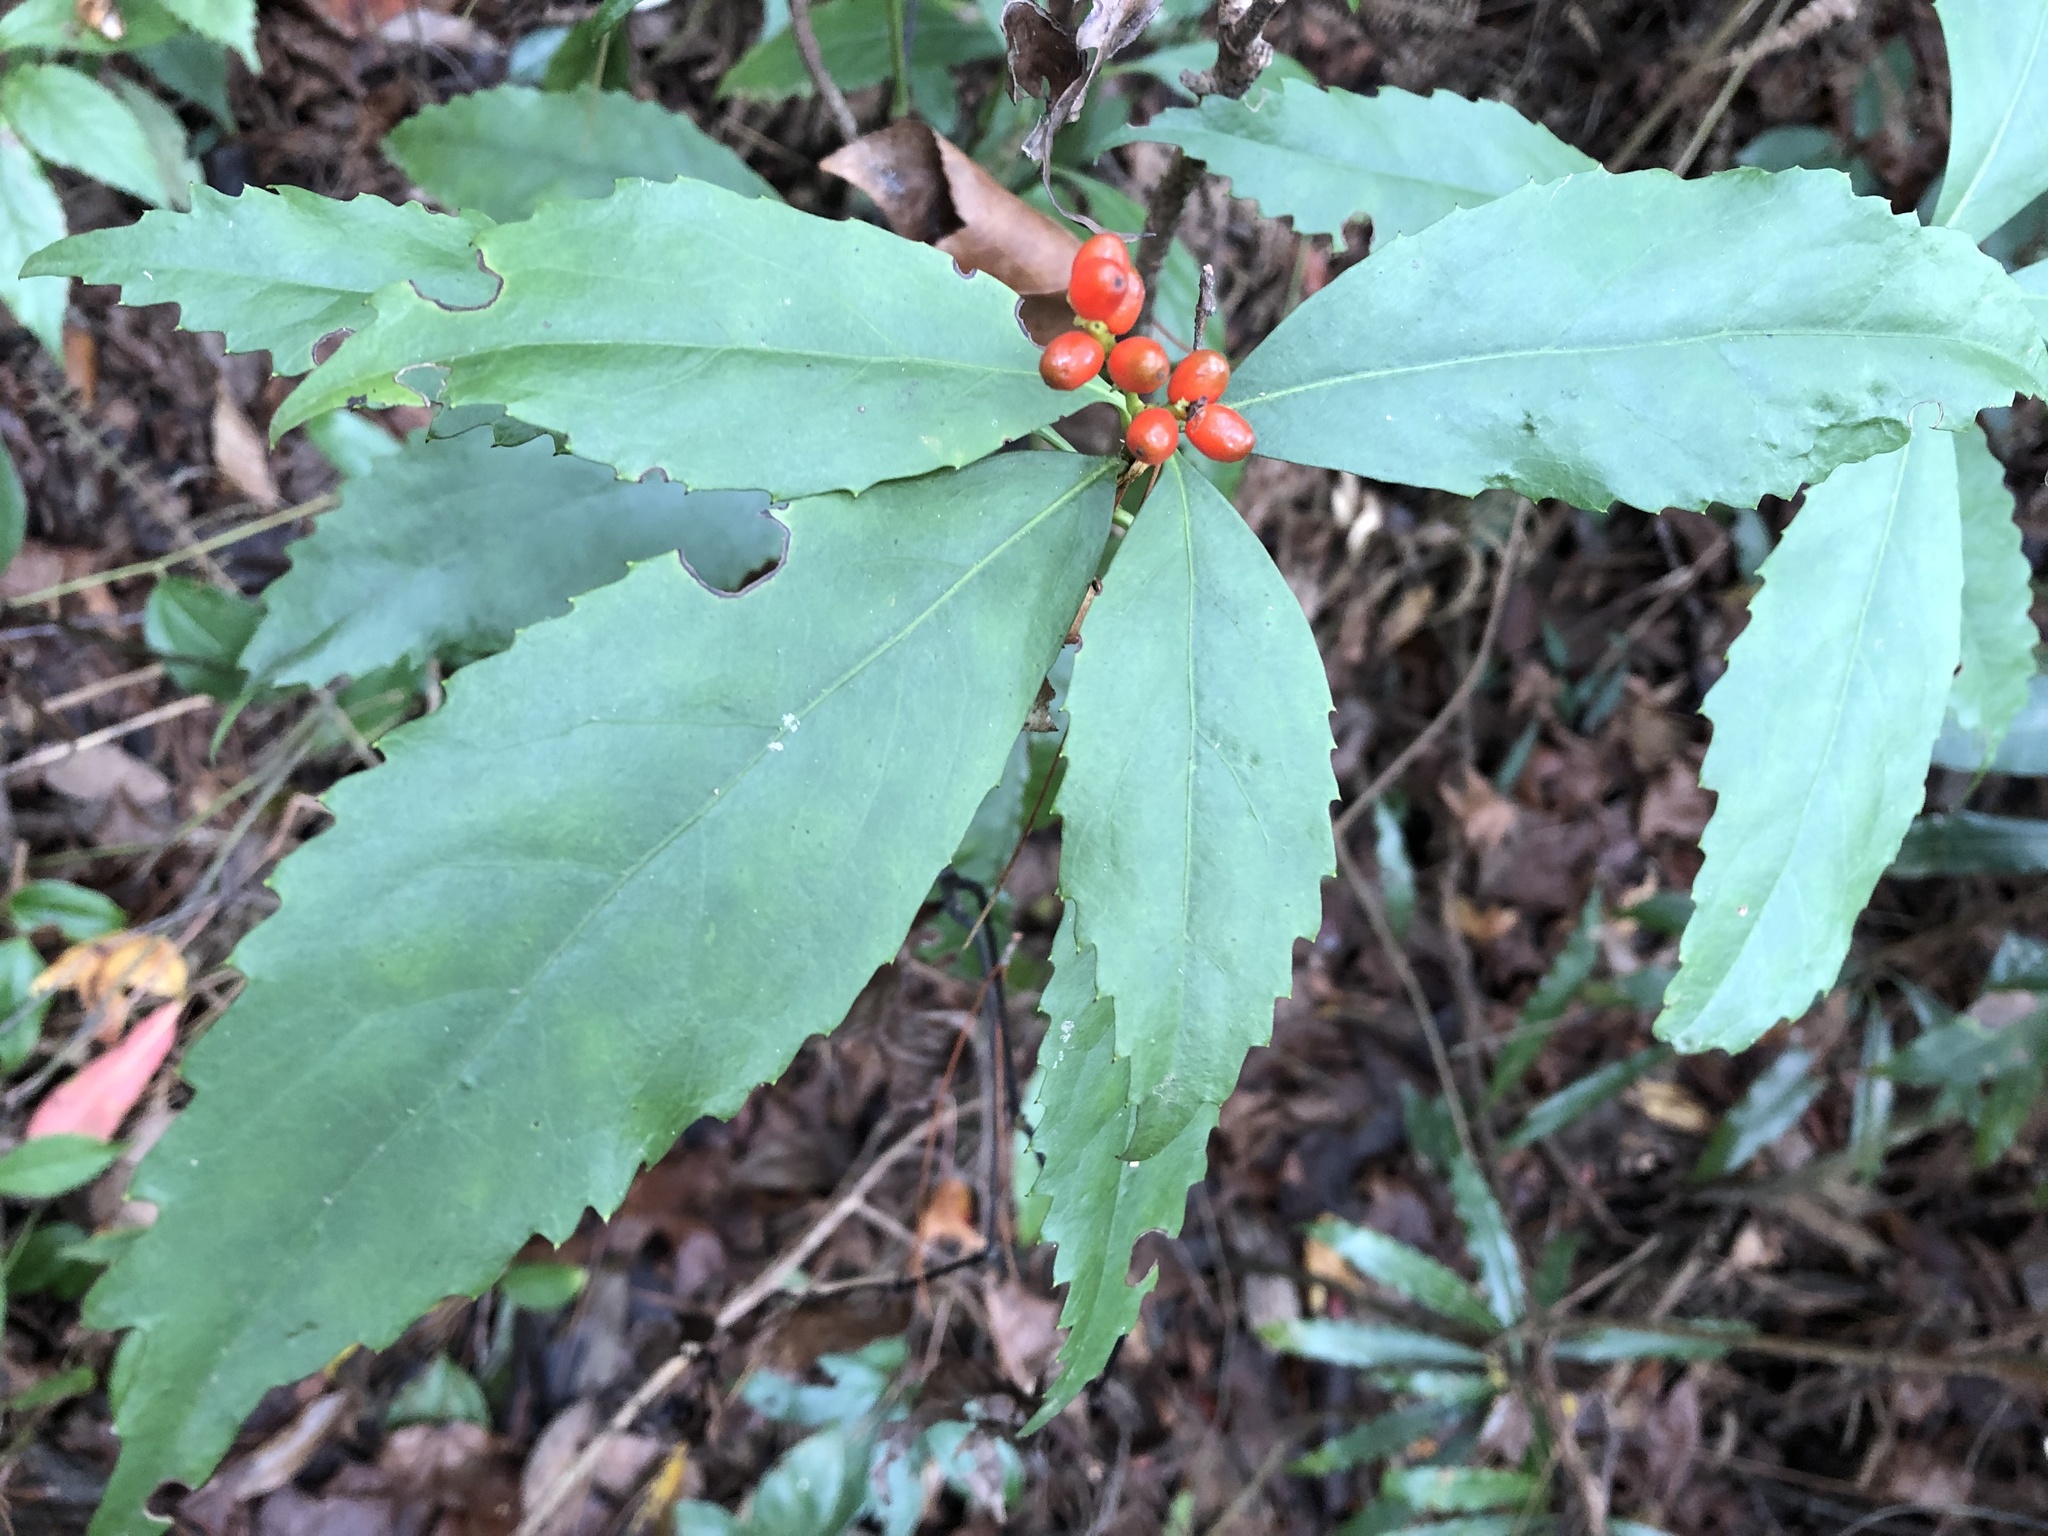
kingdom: Plantae
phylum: Tracheophyta
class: Magnoliopsida
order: Chloranthales
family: Chloranthaceae
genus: Sarcandra
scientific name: Sarcandra glabra
